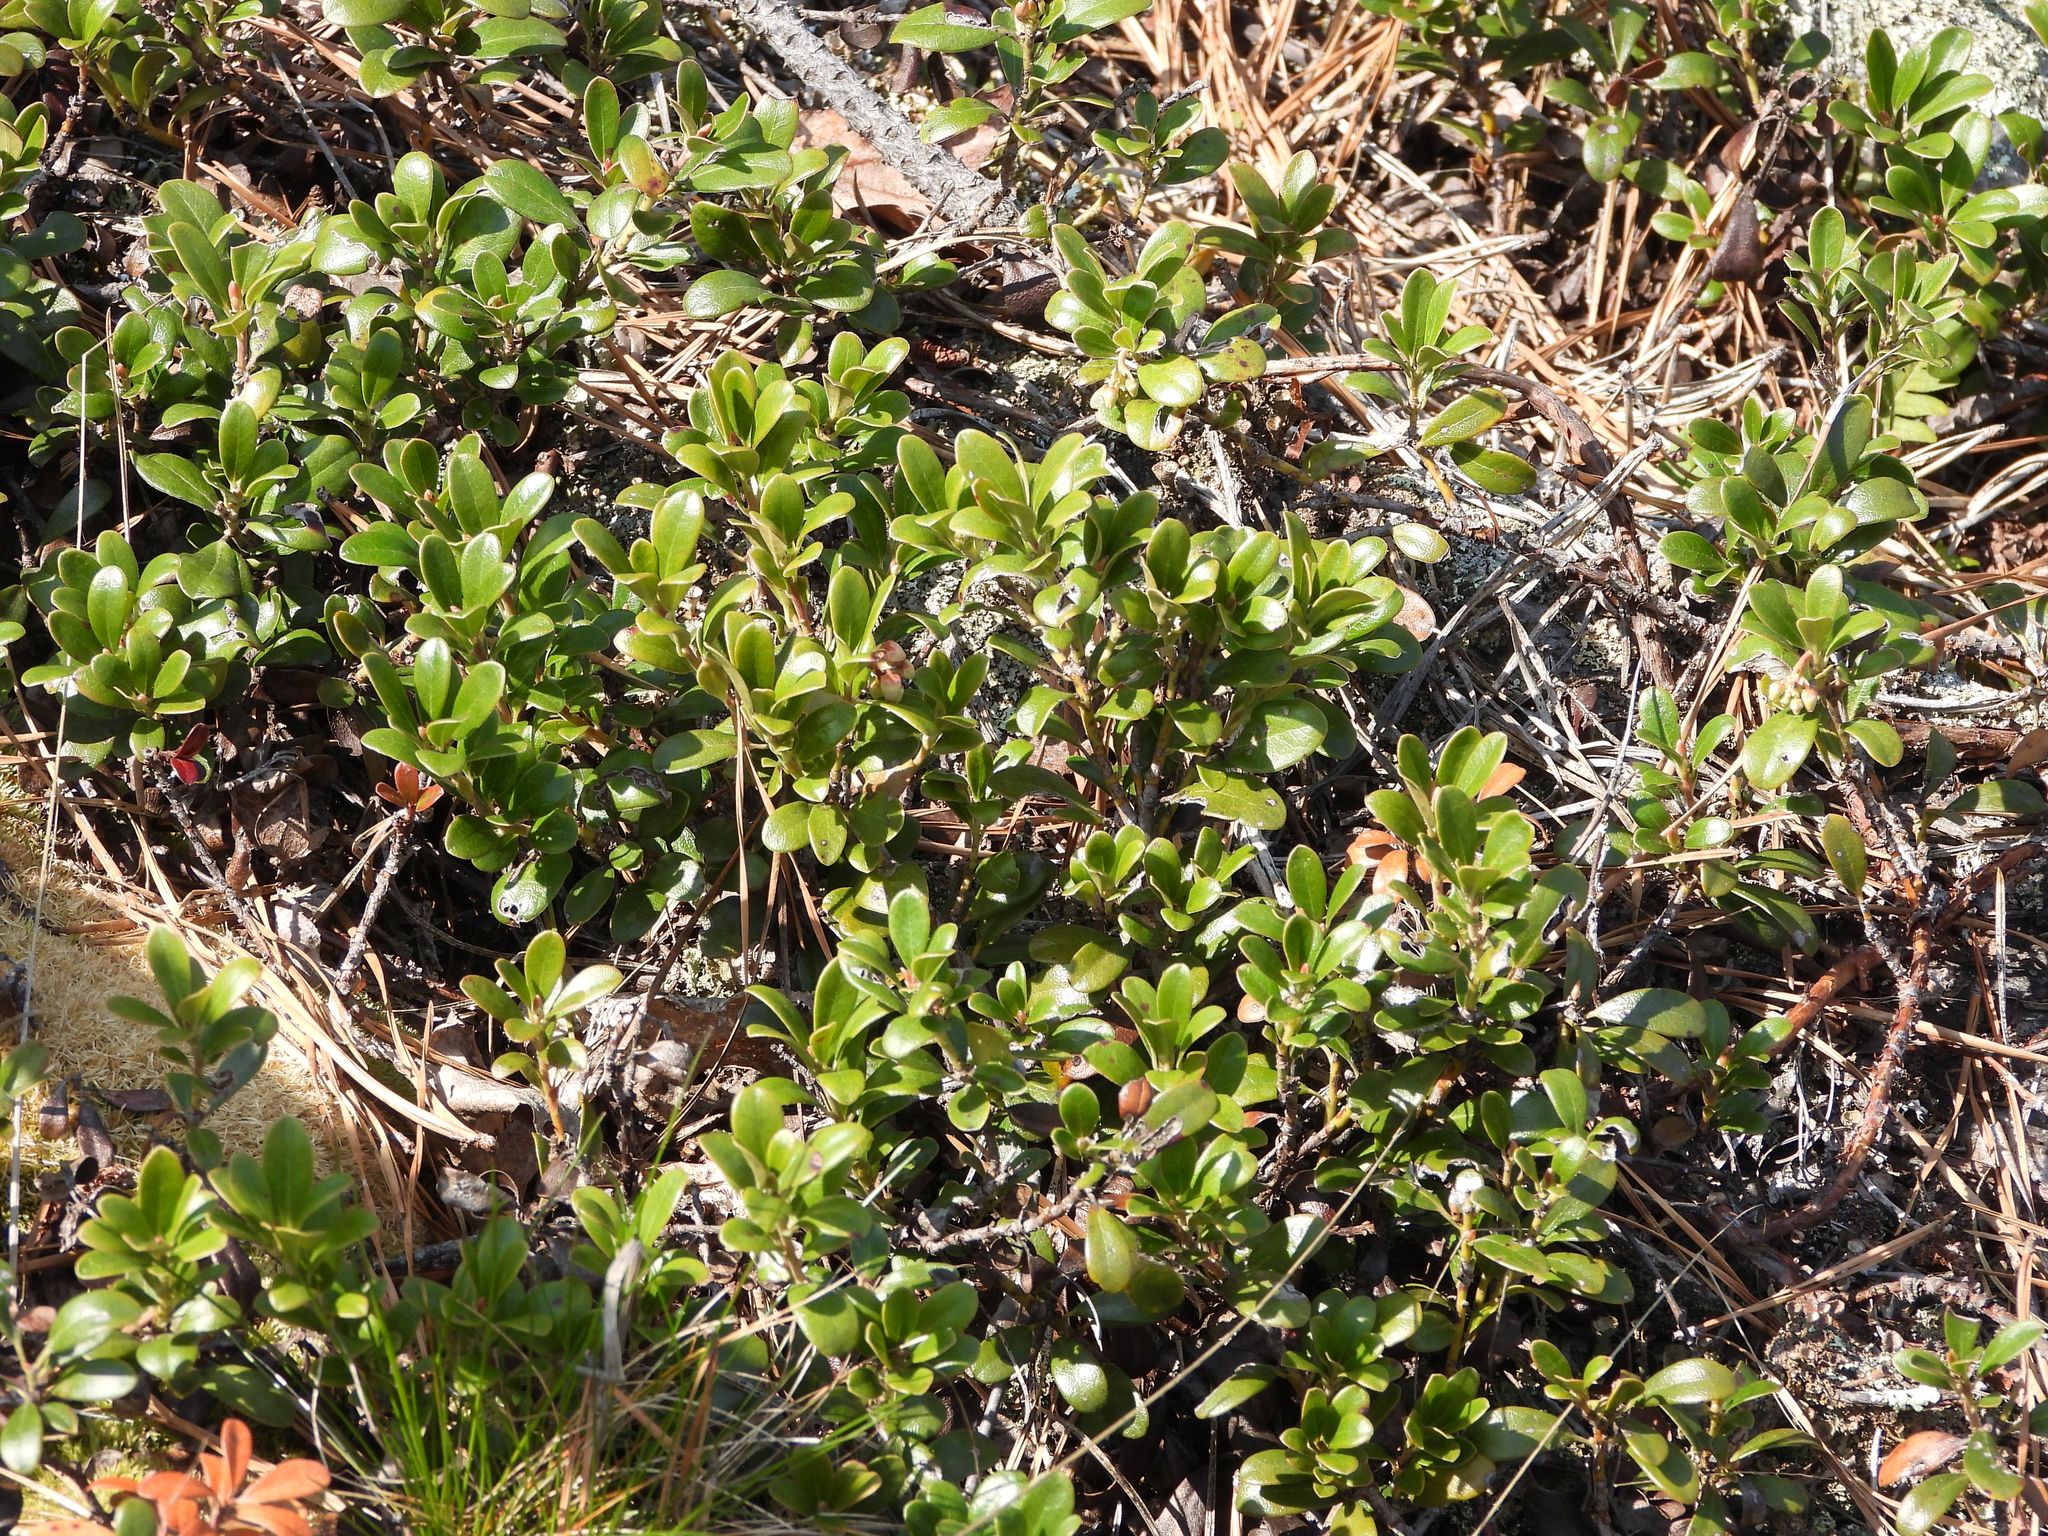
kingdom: Plantae
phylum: Tracheophyta
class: Magnoliopsida
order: Ericales
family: Ericaceae
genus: Arctostaphylos
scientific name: Arctostaphylos uva-ursi
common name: Bearberry
